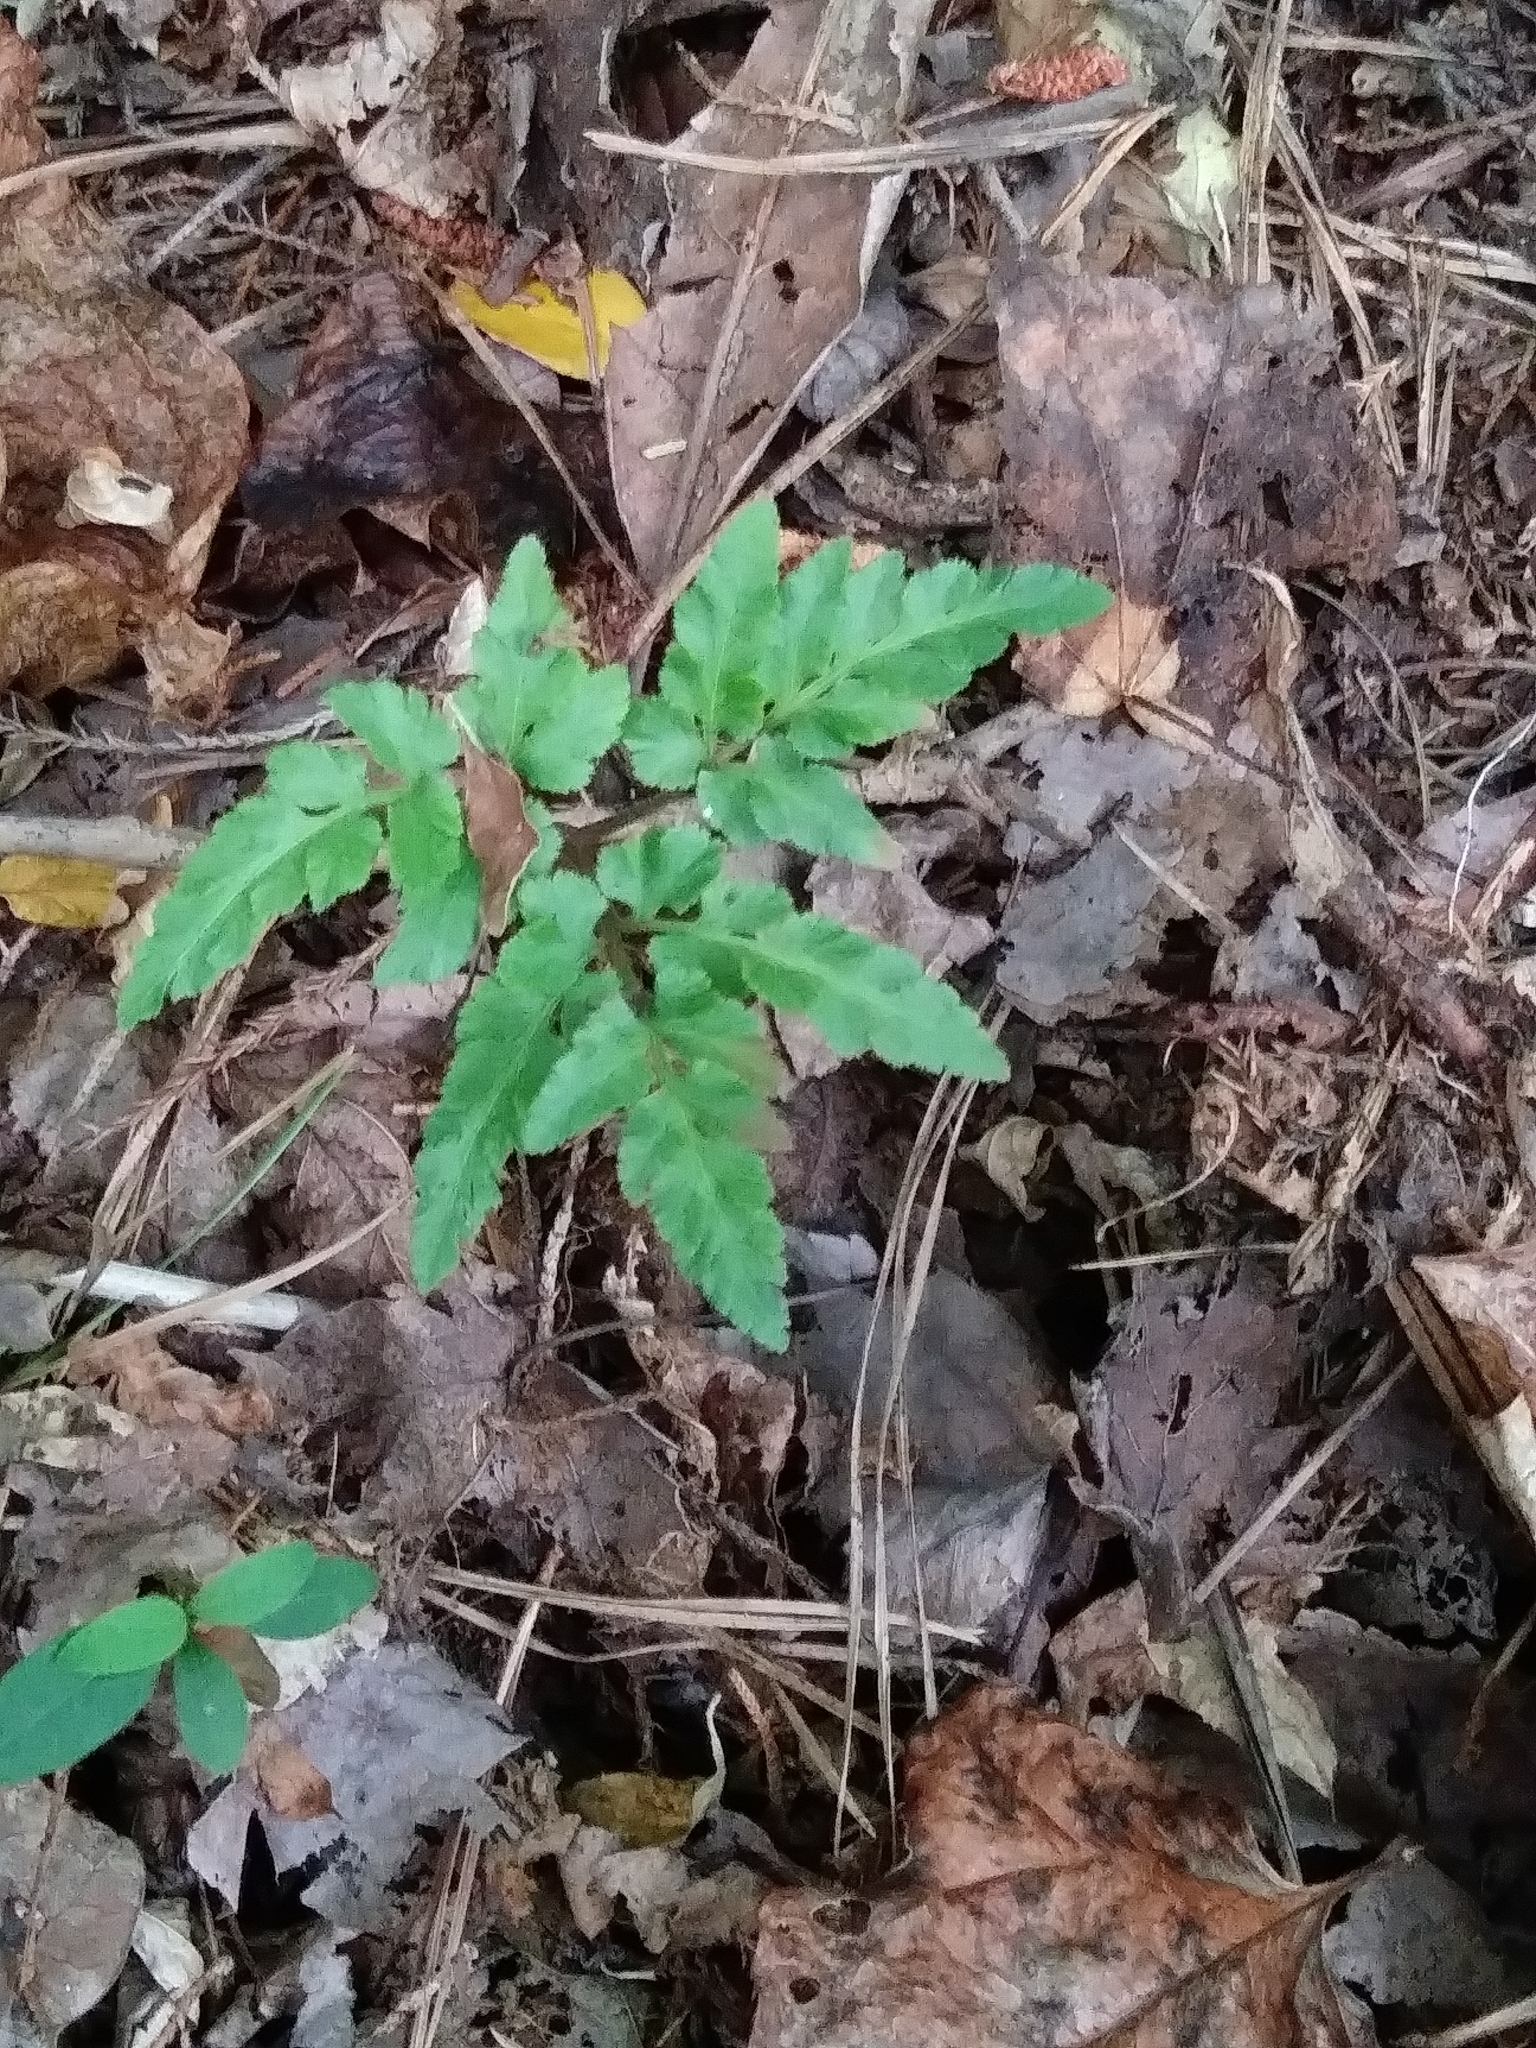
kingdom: Plantae
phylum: Tracheophyta
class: Polypodiopsida
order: Ophioglossales
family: Ophioglossaceae
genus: Sceptridium
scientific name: Sceptridium dissectum
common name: Cut-leaved grapefern
